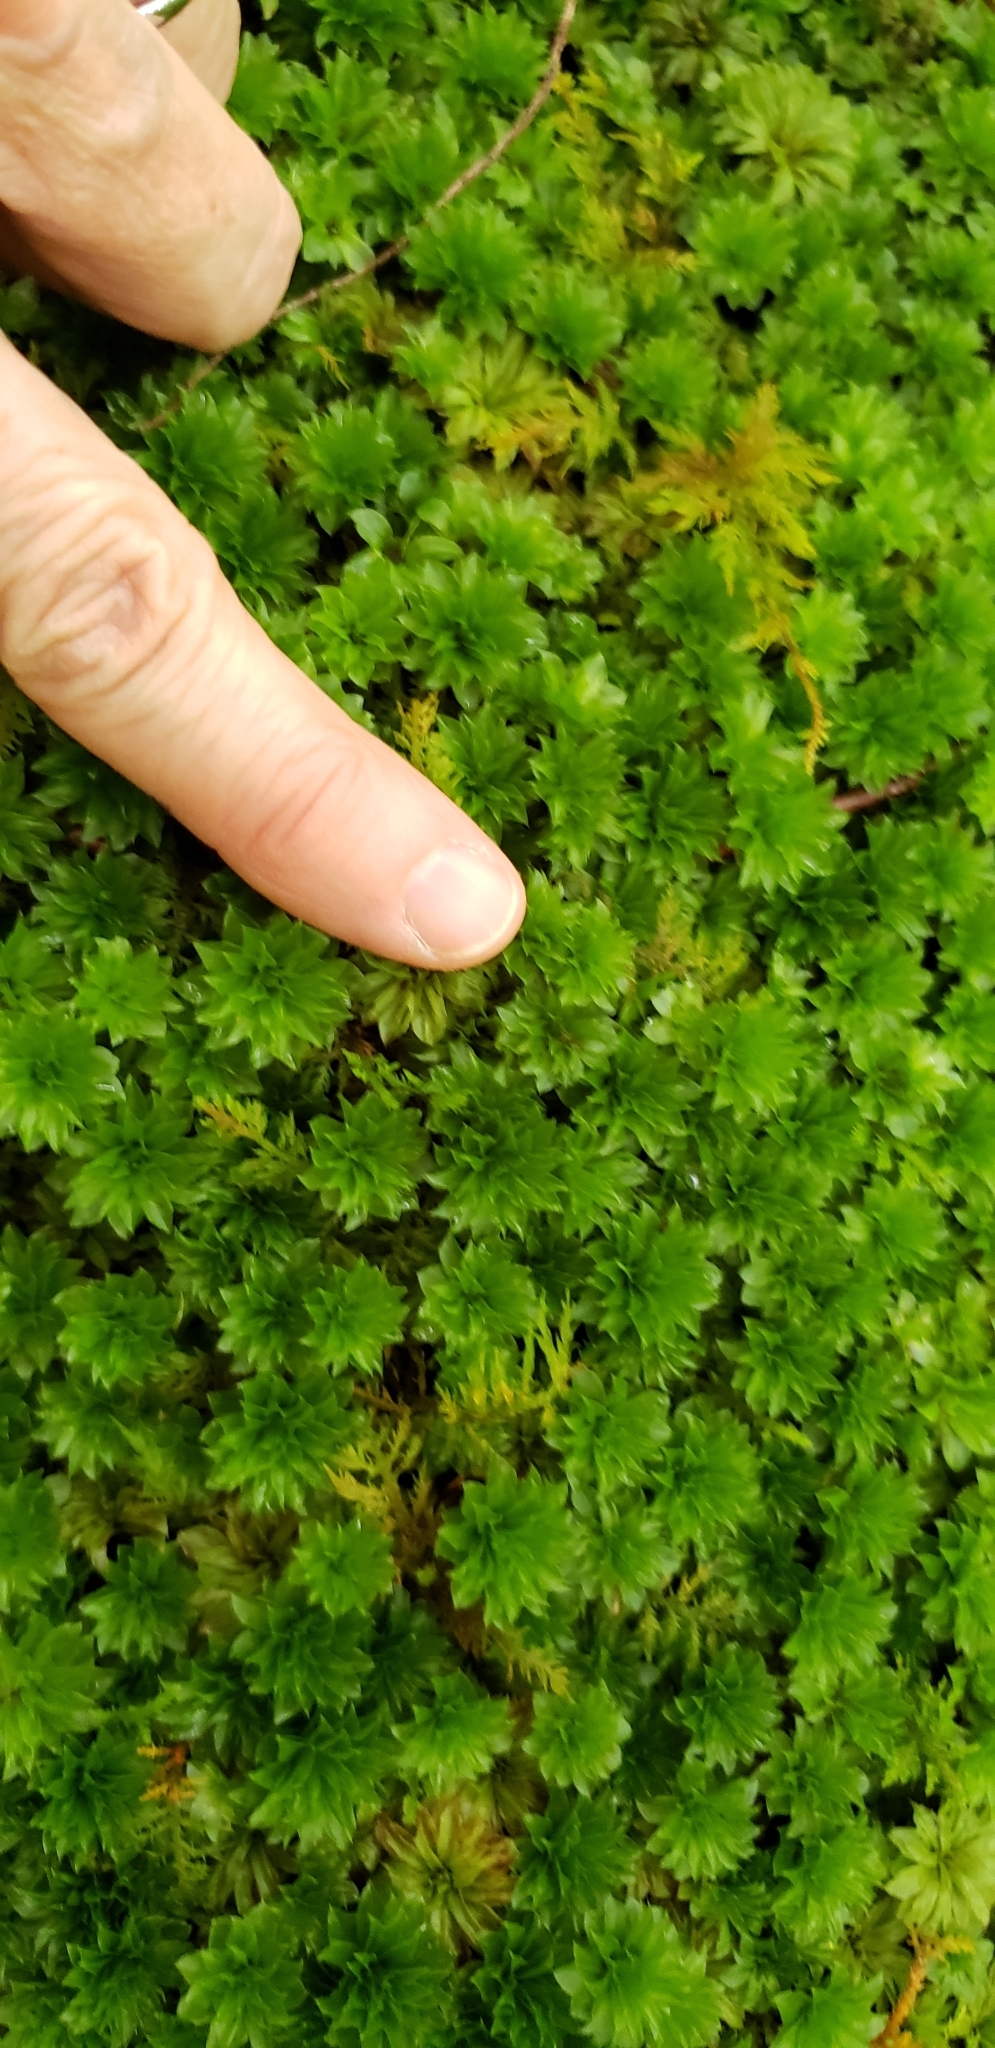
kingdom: Plantae
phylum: Bryophyta
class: Bryopsida
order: Bryales
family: Bryaceae
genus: Rhodobryum
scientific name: Rhodobryum ontariense
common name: Ontario rhodobryum moss
